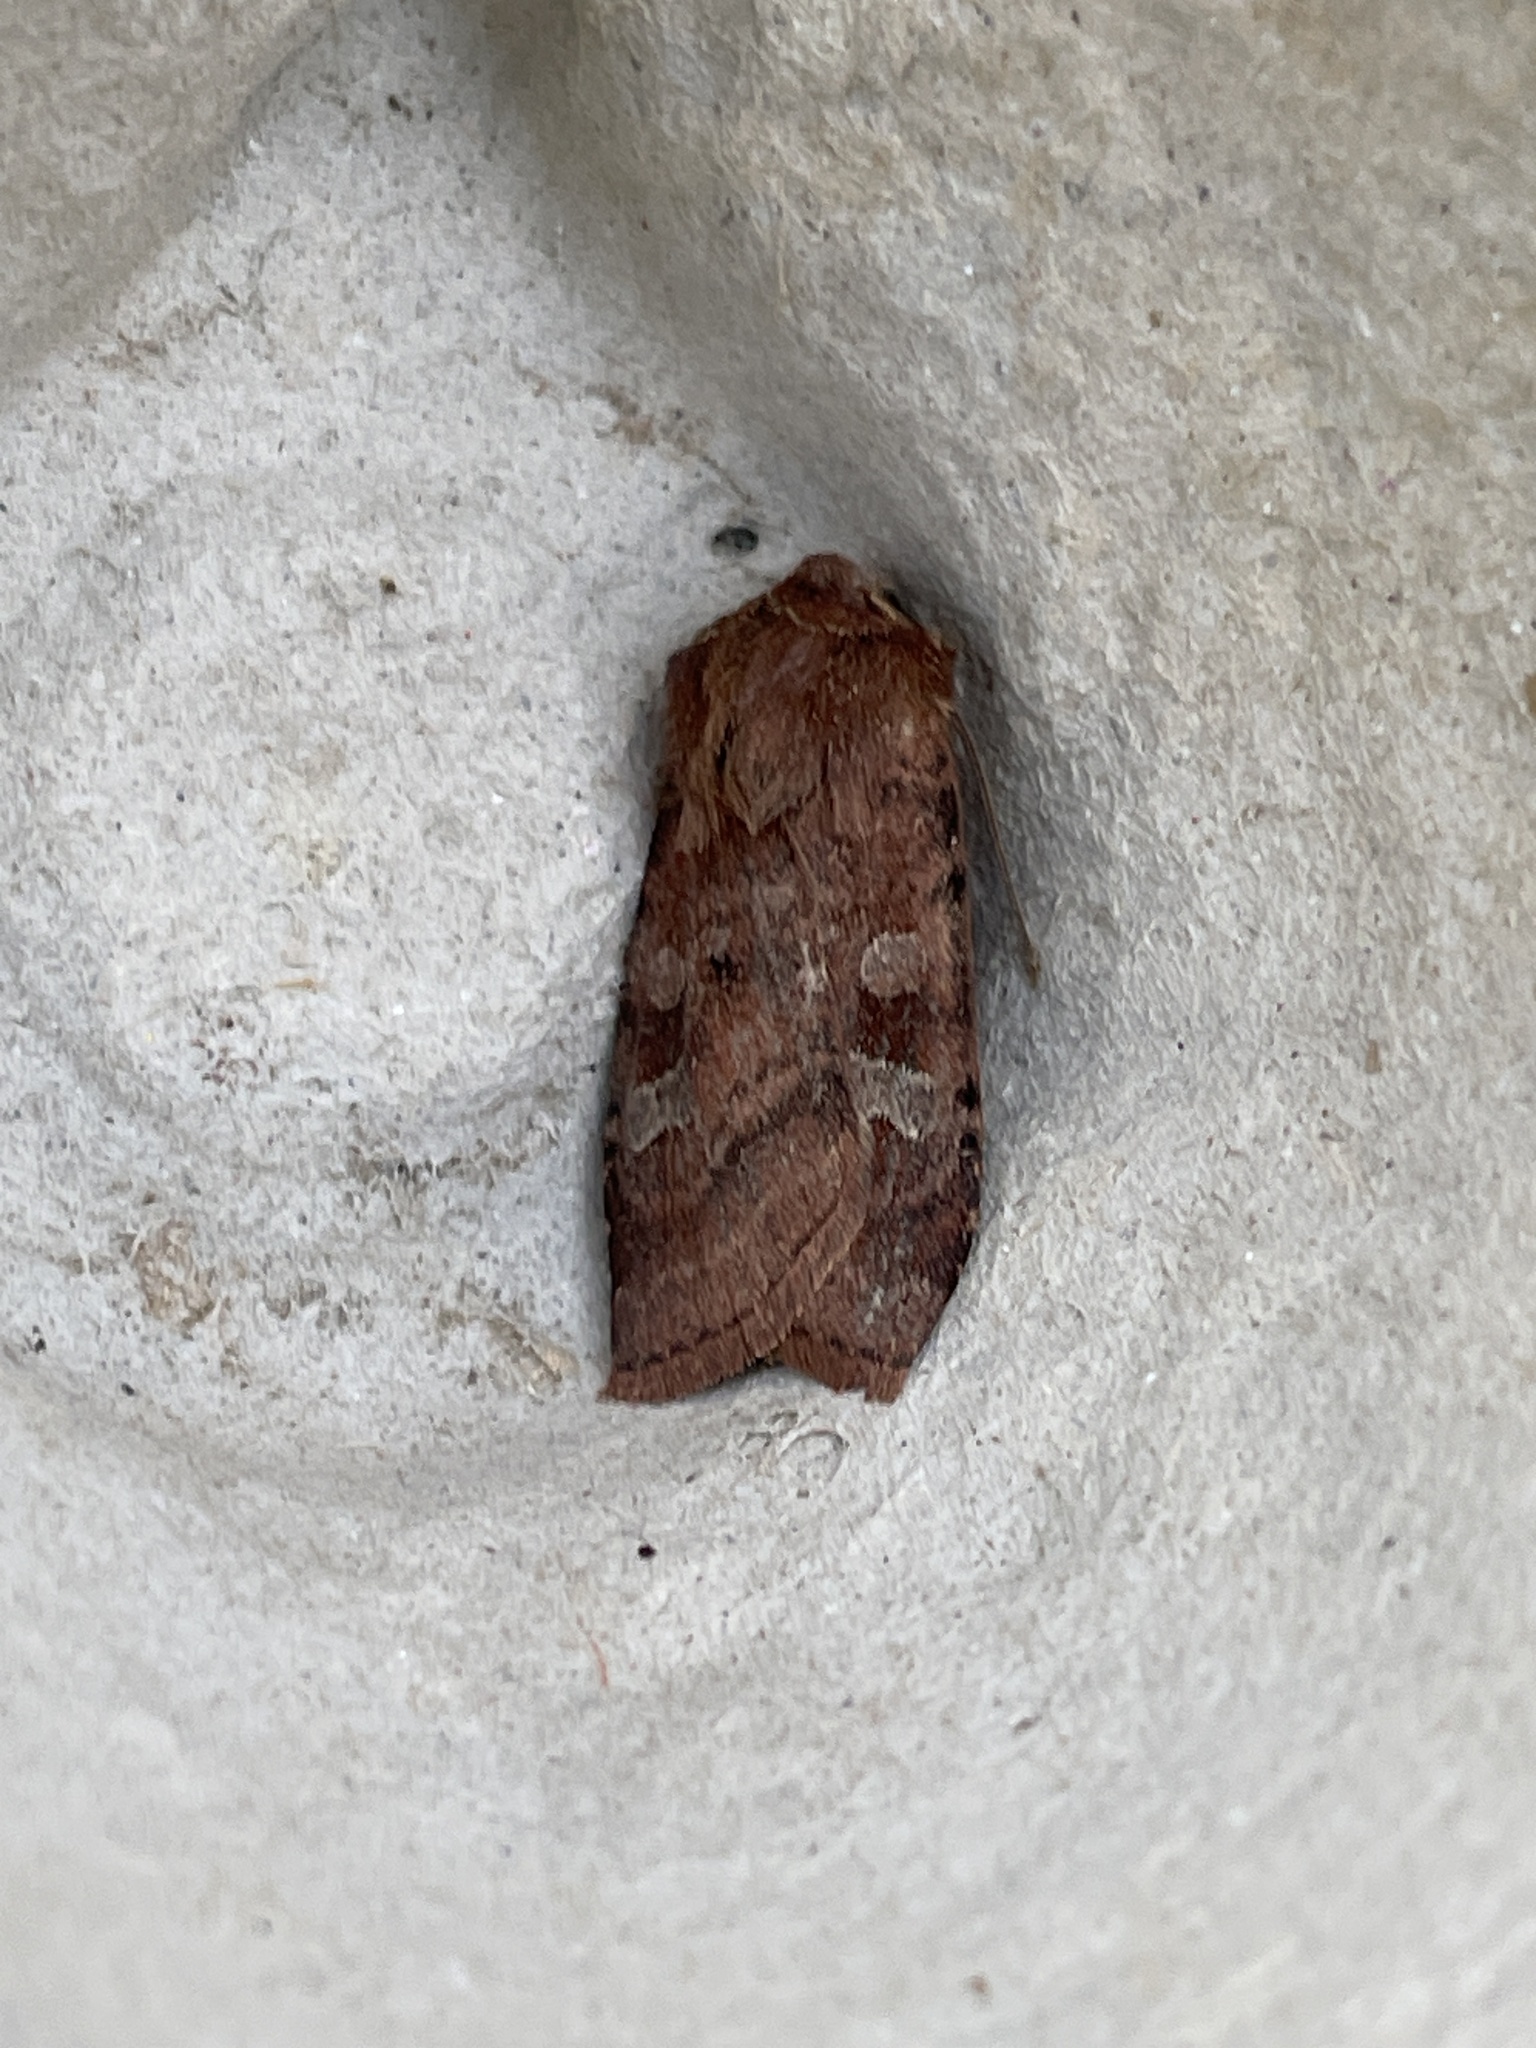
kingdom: Animalia
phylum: Arthropoda
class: Insecta
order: Lepidoptera
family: Noctuidae
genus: Diarsia
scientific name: Diarsia rubi
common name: Small square-spot
